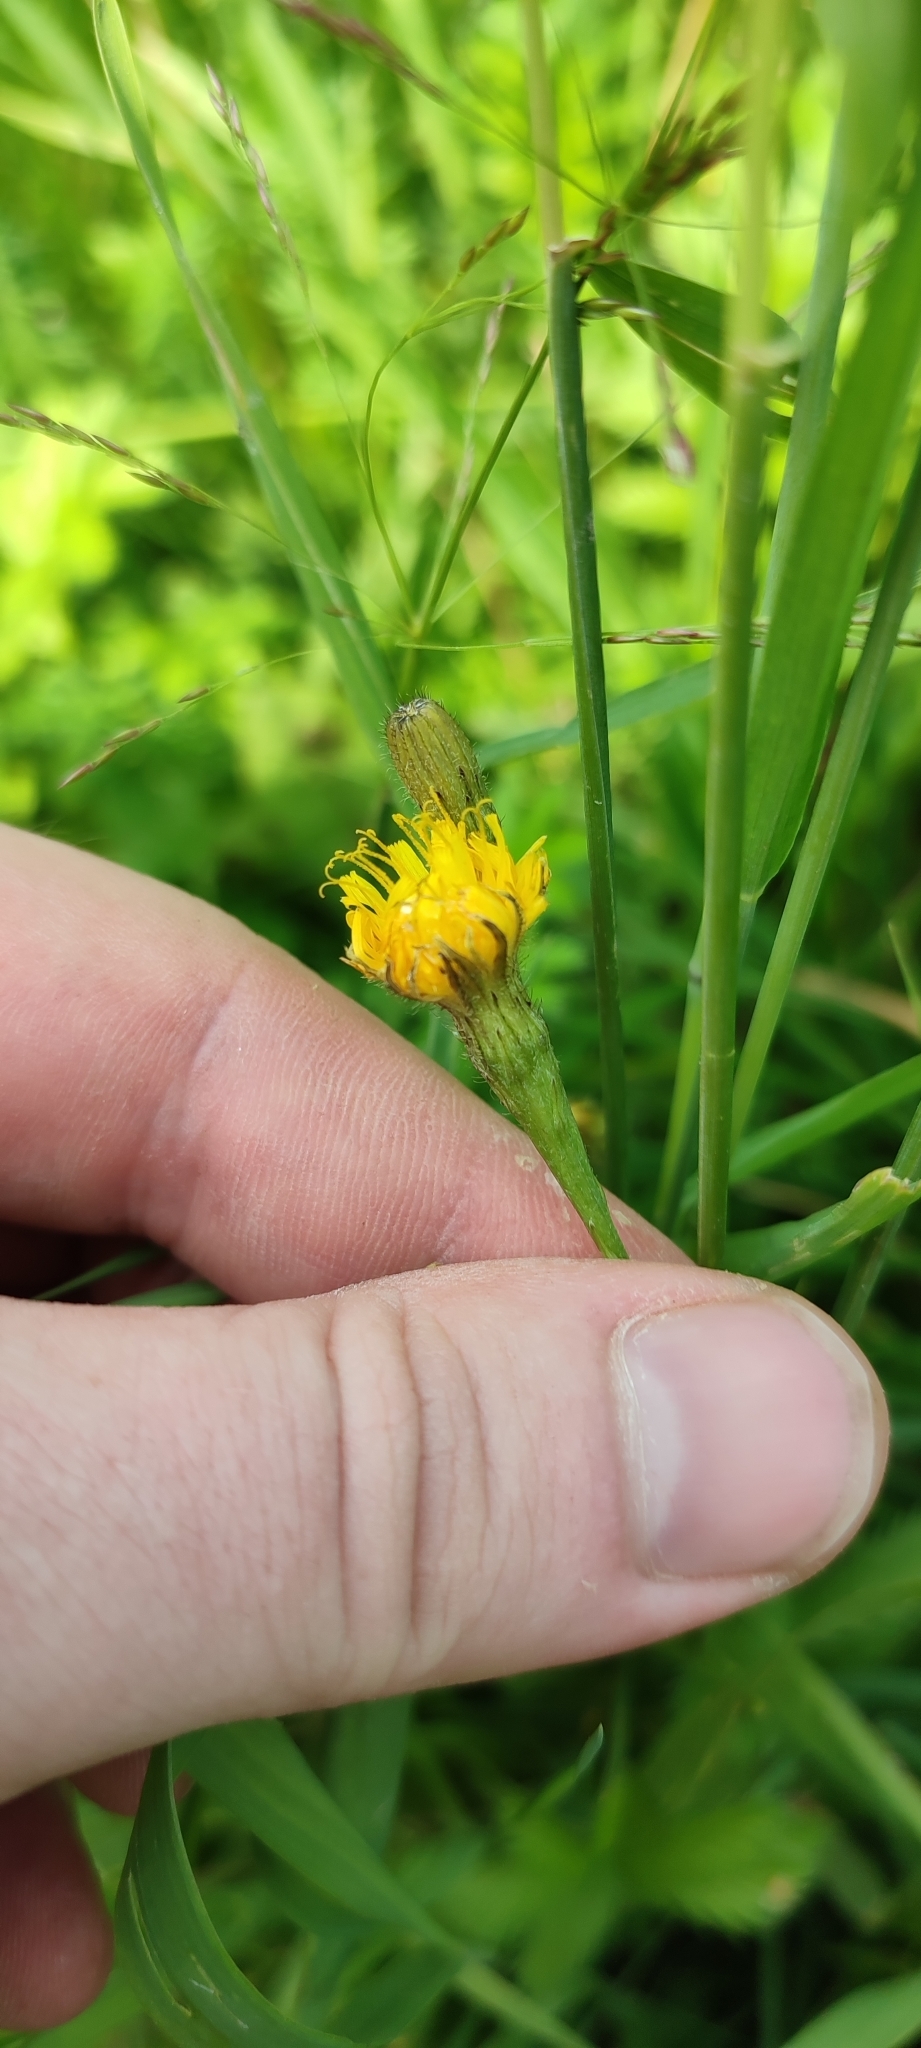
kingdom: Plantae
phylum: Tracheophyta
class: Magnoliopsida
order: Asterales
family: Asteraceae
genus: Scorzoneroides
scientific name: Scorzoneroides autumnalis
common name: Autumn hawkbit
